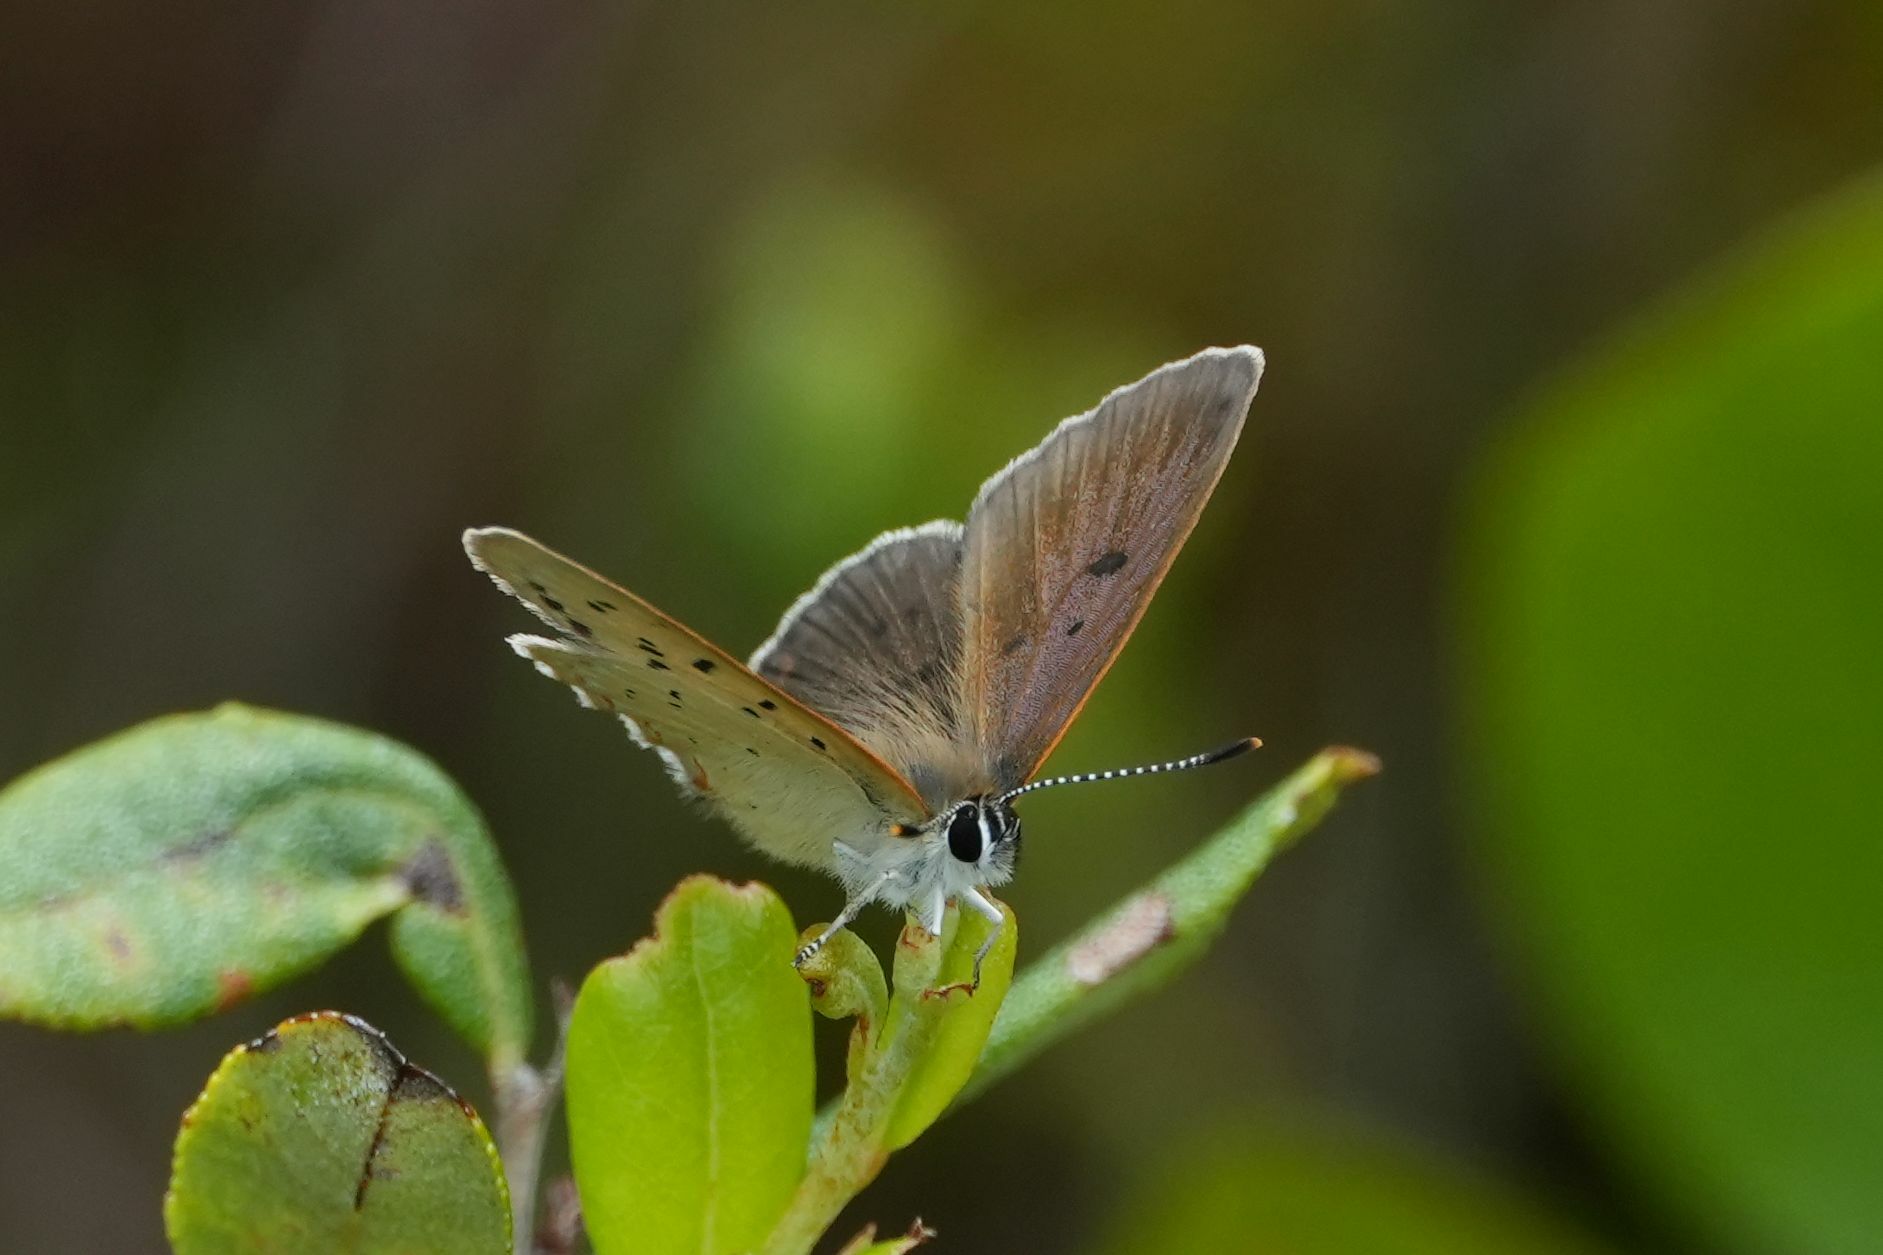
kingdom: Animalia
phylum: Arthropoda
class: Insecta
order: Lepidoptera
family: Lycaenidae
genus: Tharsalea
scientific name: Tharsalea epixanthe
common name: Bog copper
